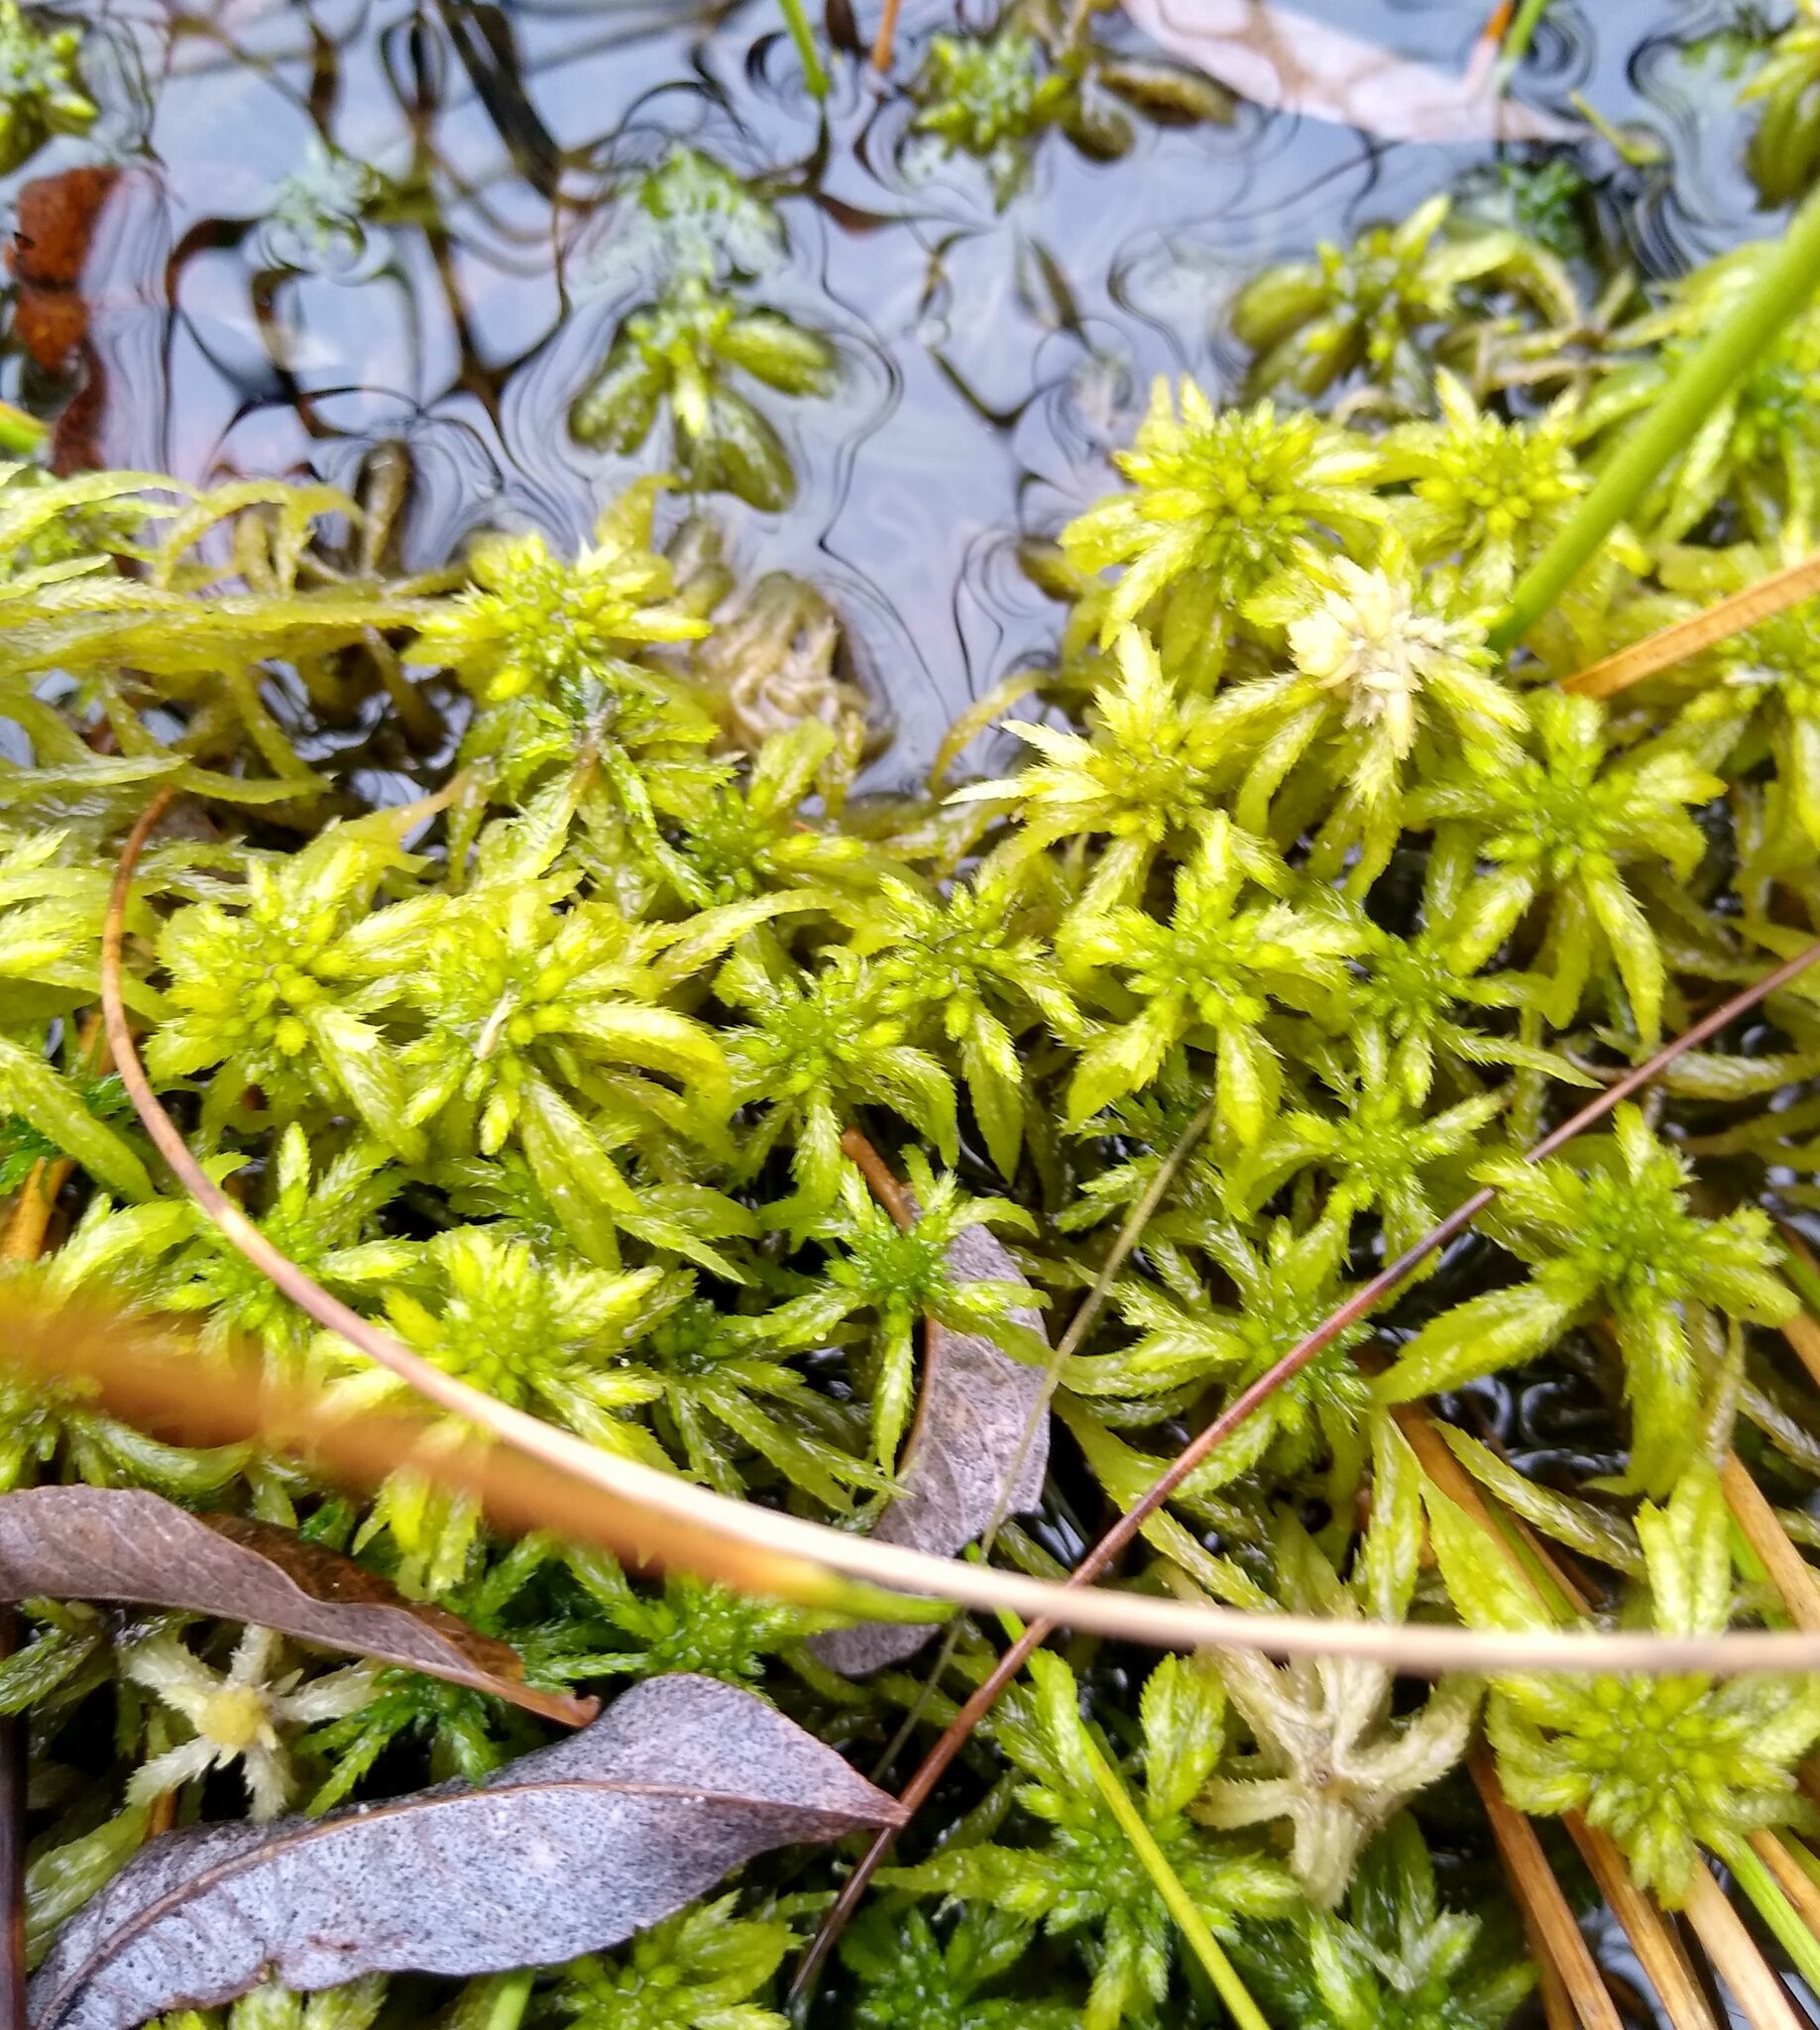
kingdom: Plantae
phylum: Bryophyta
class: Sphagnopsida
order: Sphagnales
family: Sphagnaceae
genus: Sphagnum
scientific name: Sphagnum riparium
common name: Streamside peat moss
